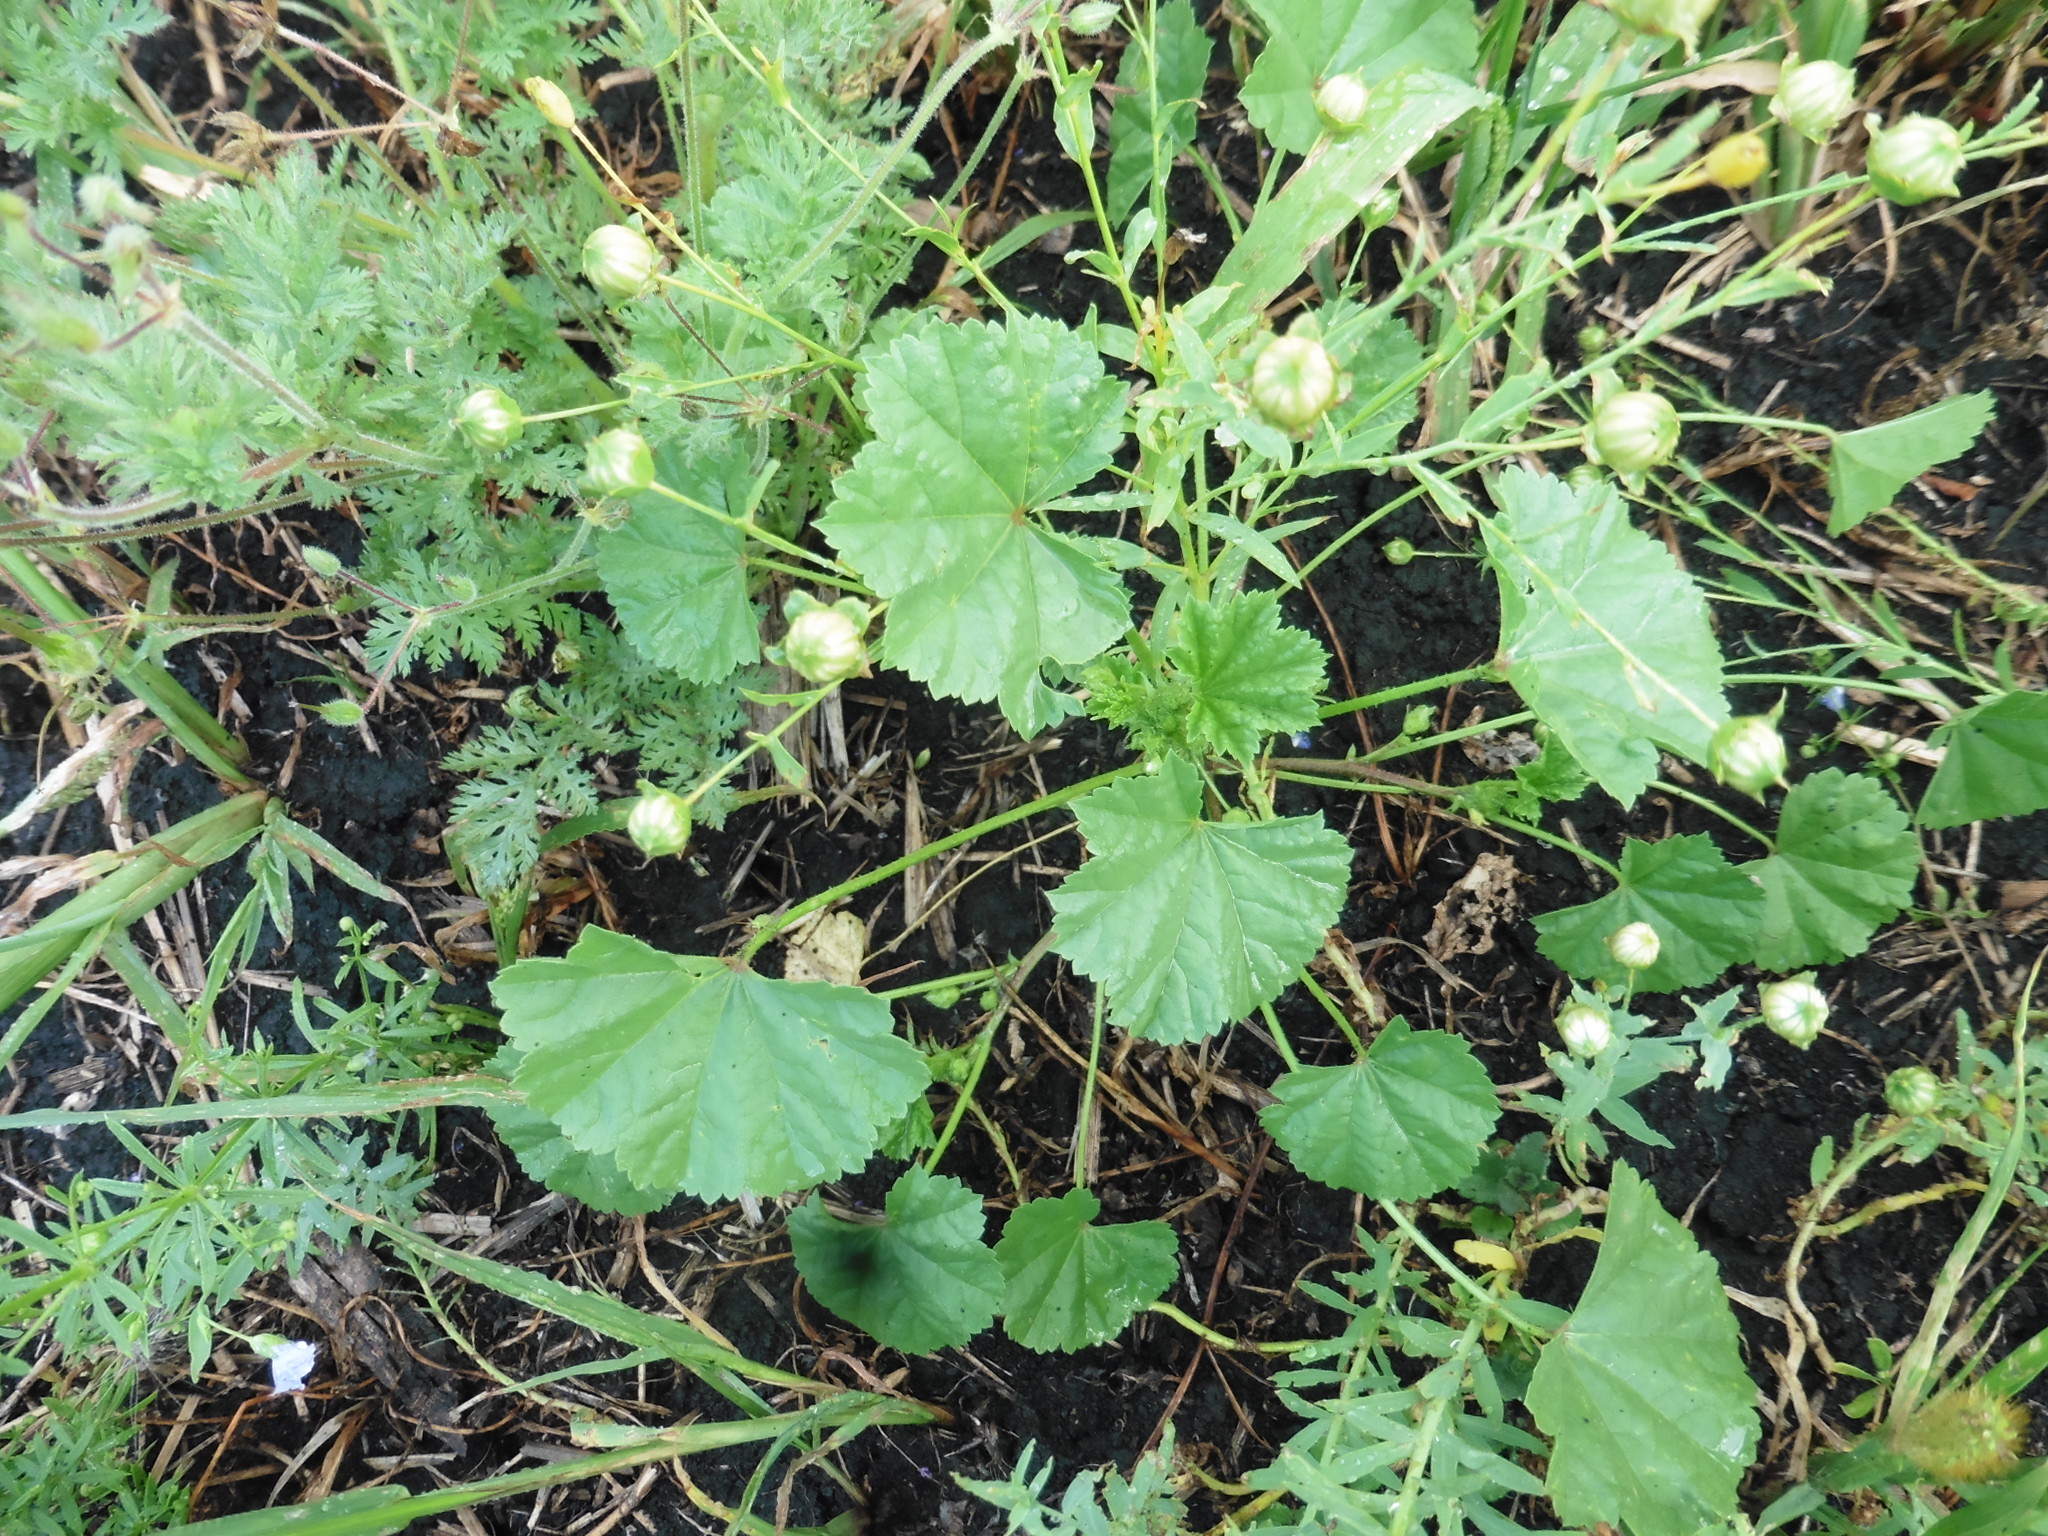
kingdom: Plantae
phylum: Tracheophyta
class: Magnoliopsida
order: Malvales
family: Malvaceae
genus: Malva
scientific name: Malva pusilla
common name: Small mallow
